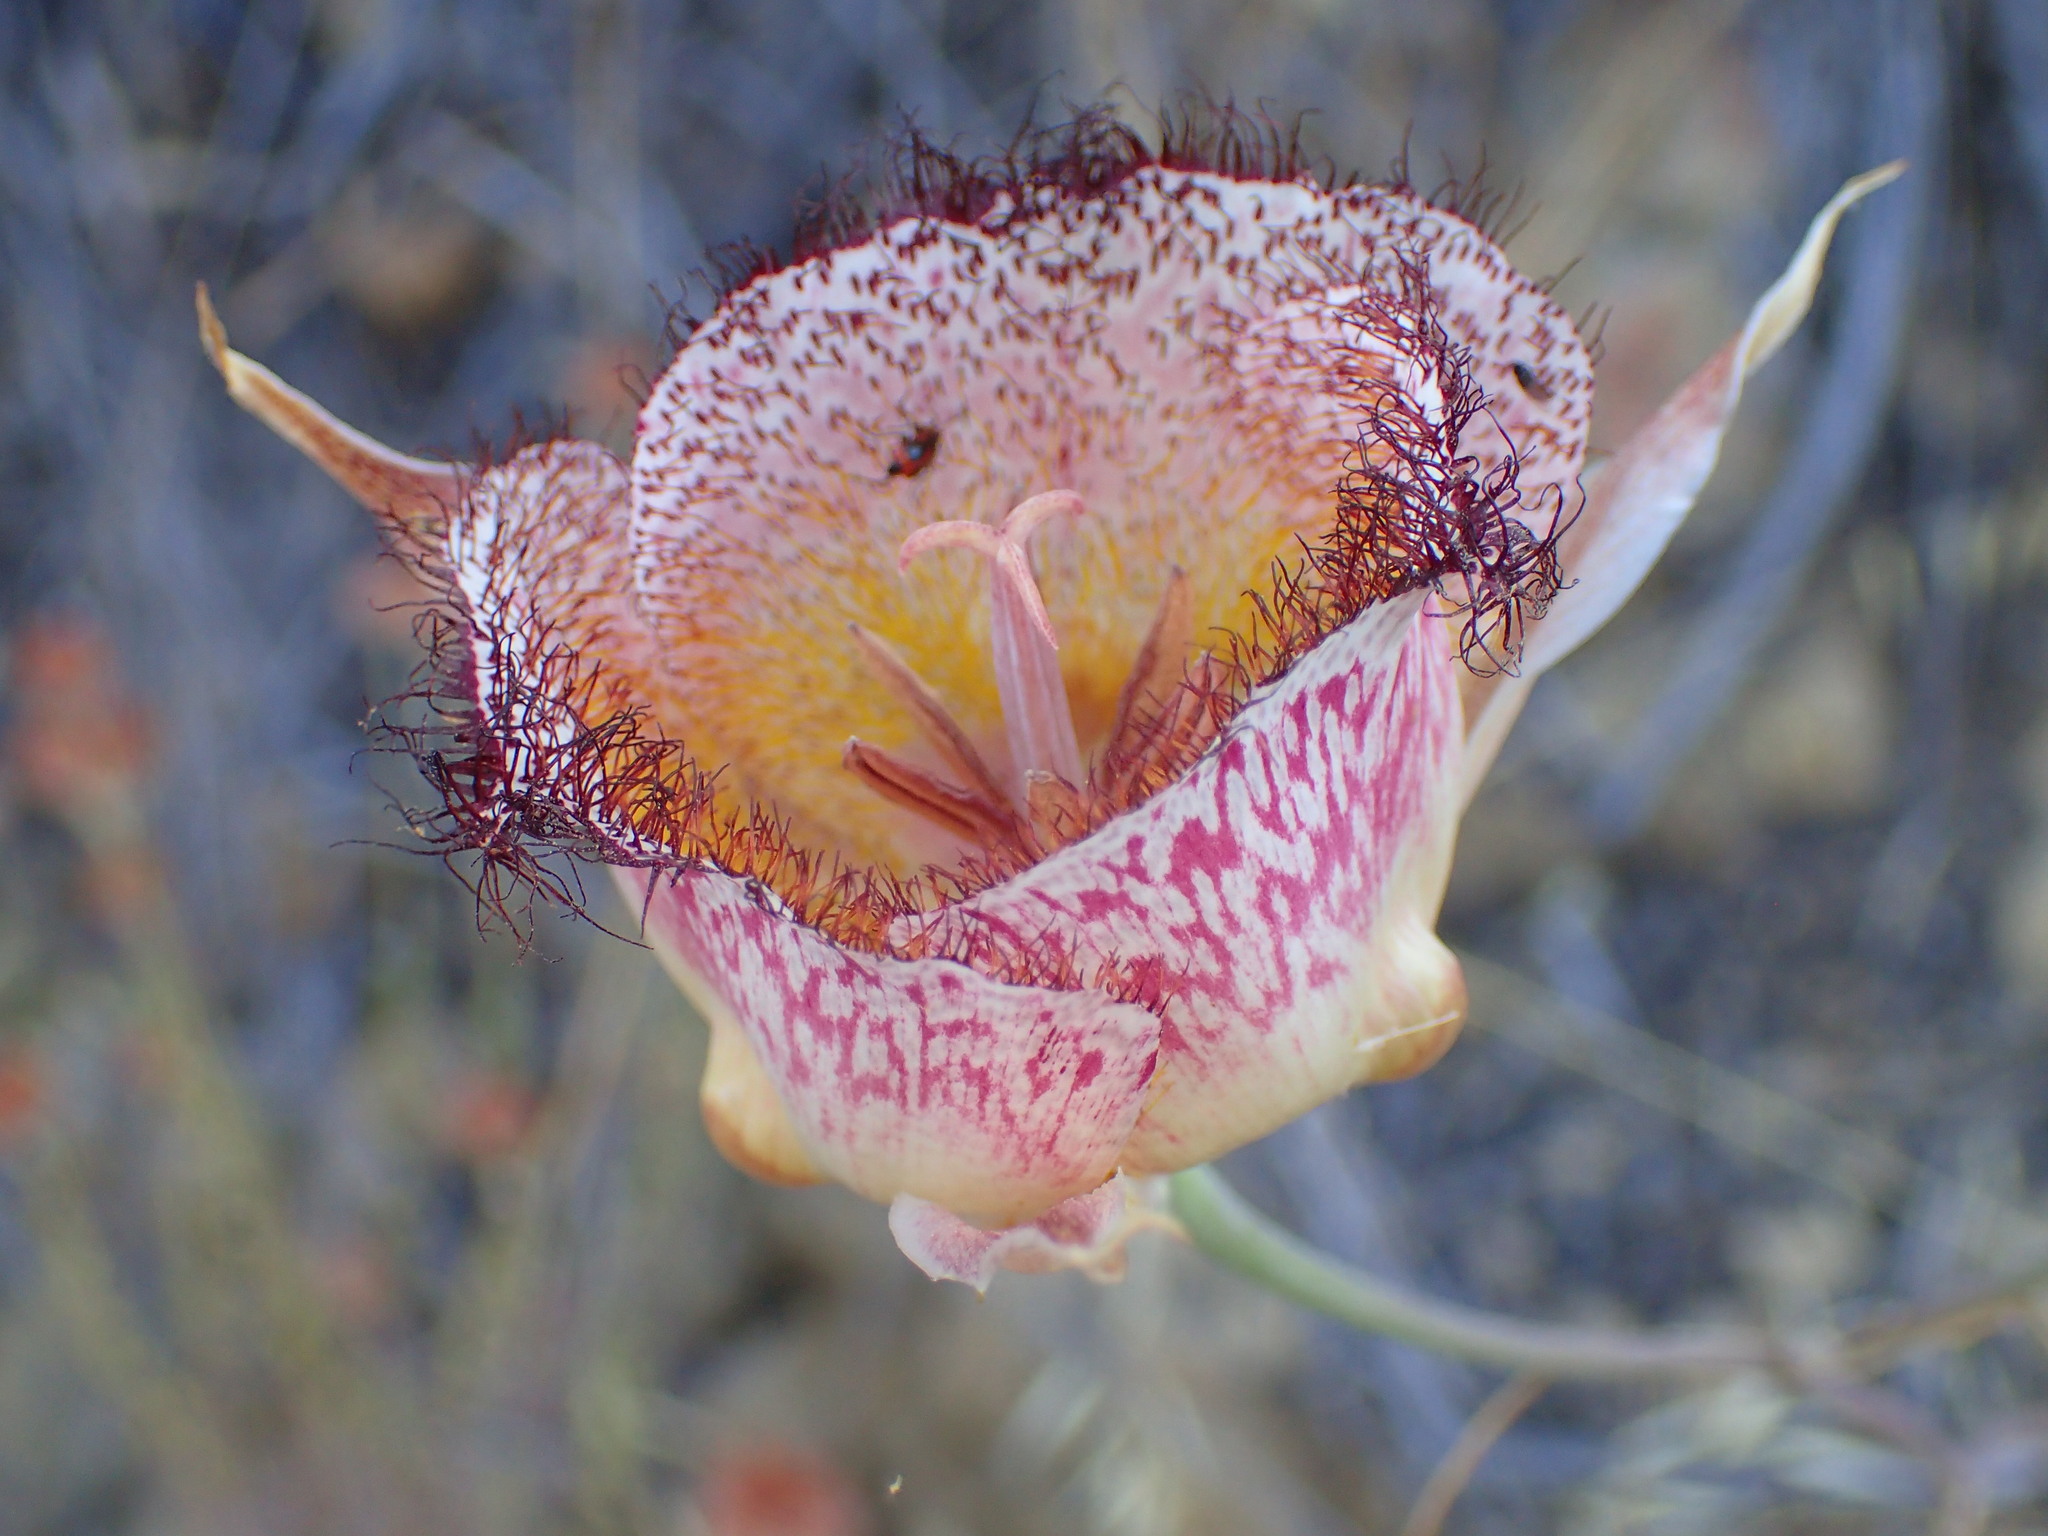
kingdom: Plantae
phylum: Tracheophyta
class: Liliopsida
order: Liliales
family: Liliaceae
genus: Calochortus
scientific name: Calochortus fimbriatus
